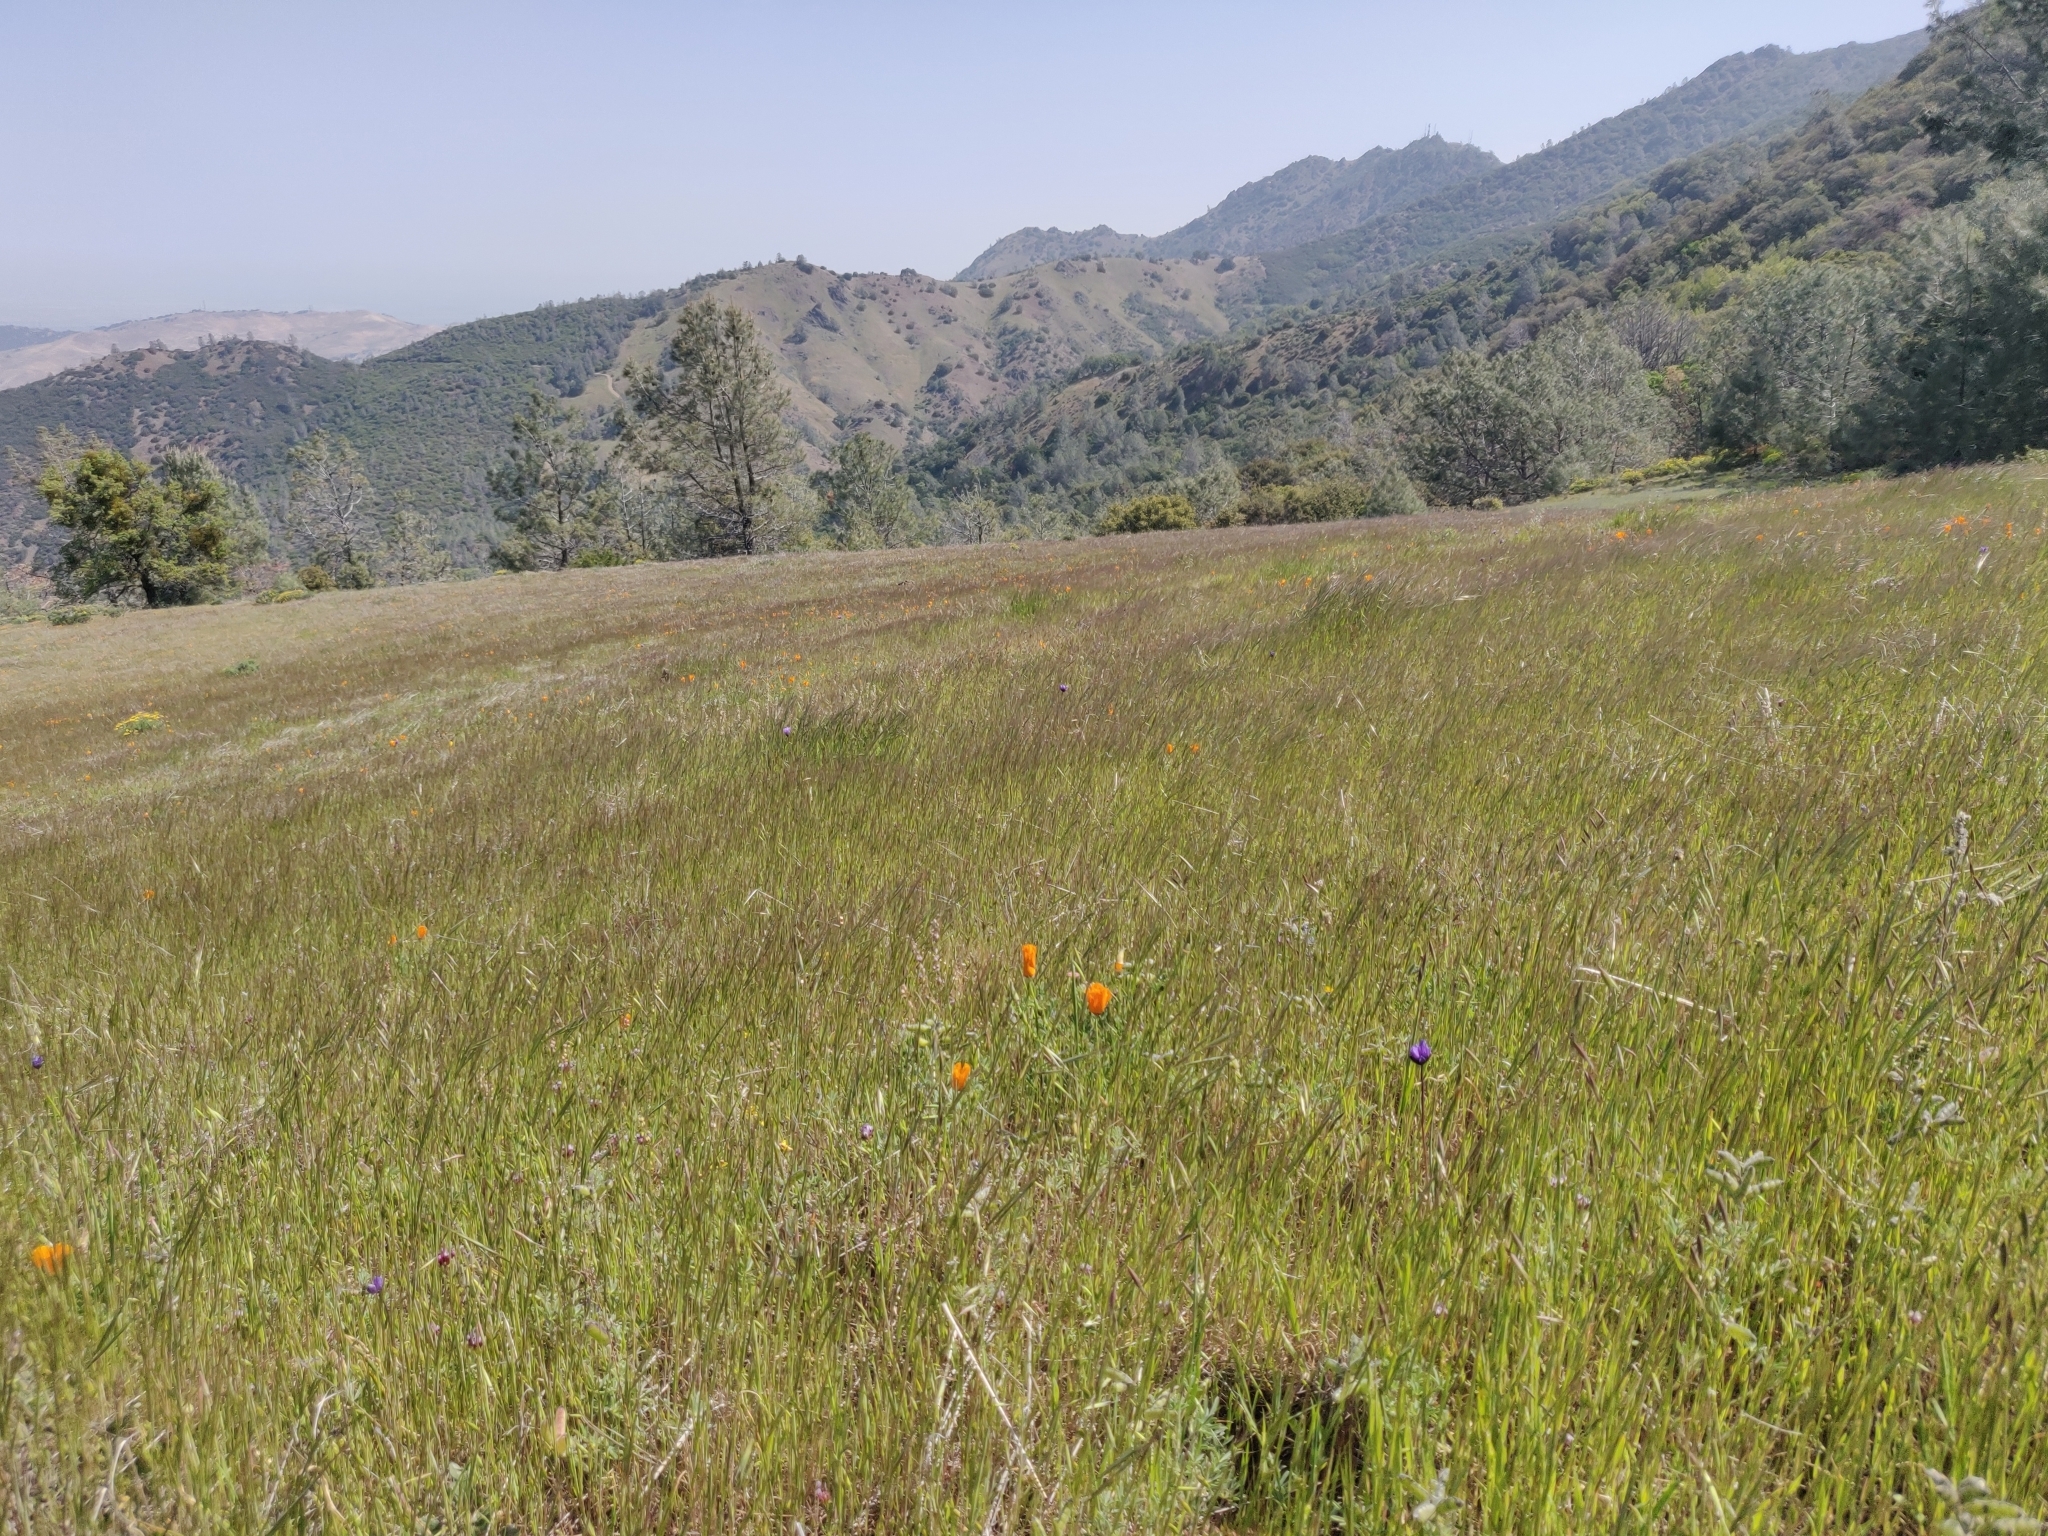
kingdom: Plantae
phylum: Tracheophyta
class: Magnoliopsida
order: Malpighiales
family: Violaceae
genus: Viola
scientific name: Viola purpurea
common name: Pine violet
